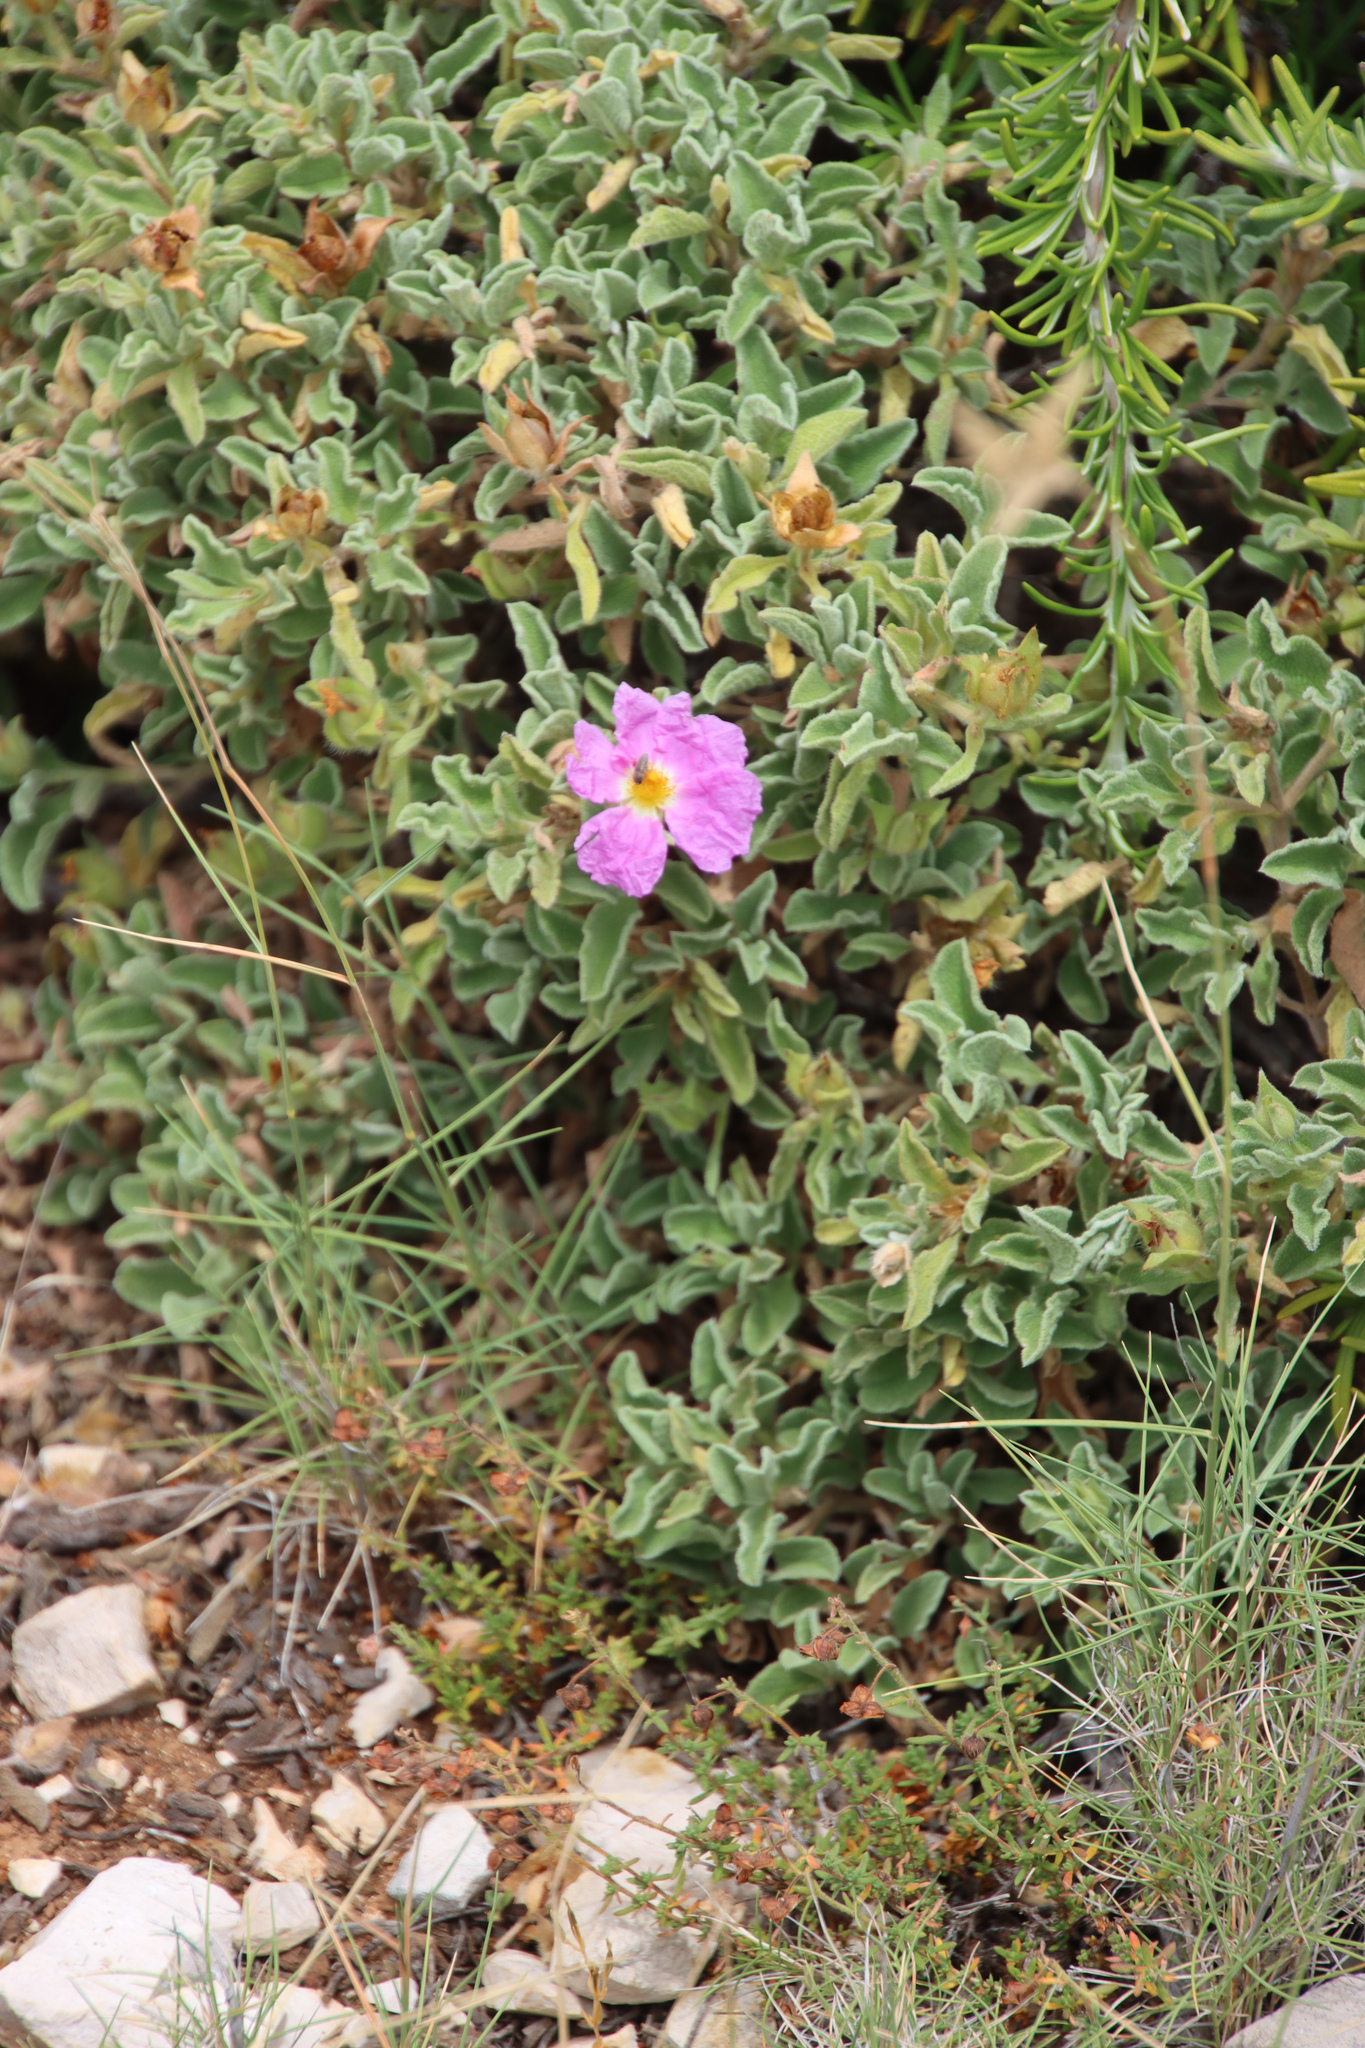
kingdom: Plantae
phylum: Tracheophyta
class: Magnoliopsida
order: Malvales
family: Cistaceae
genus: Cistus
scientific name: Cistus creticus
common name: Cretan rockrose
